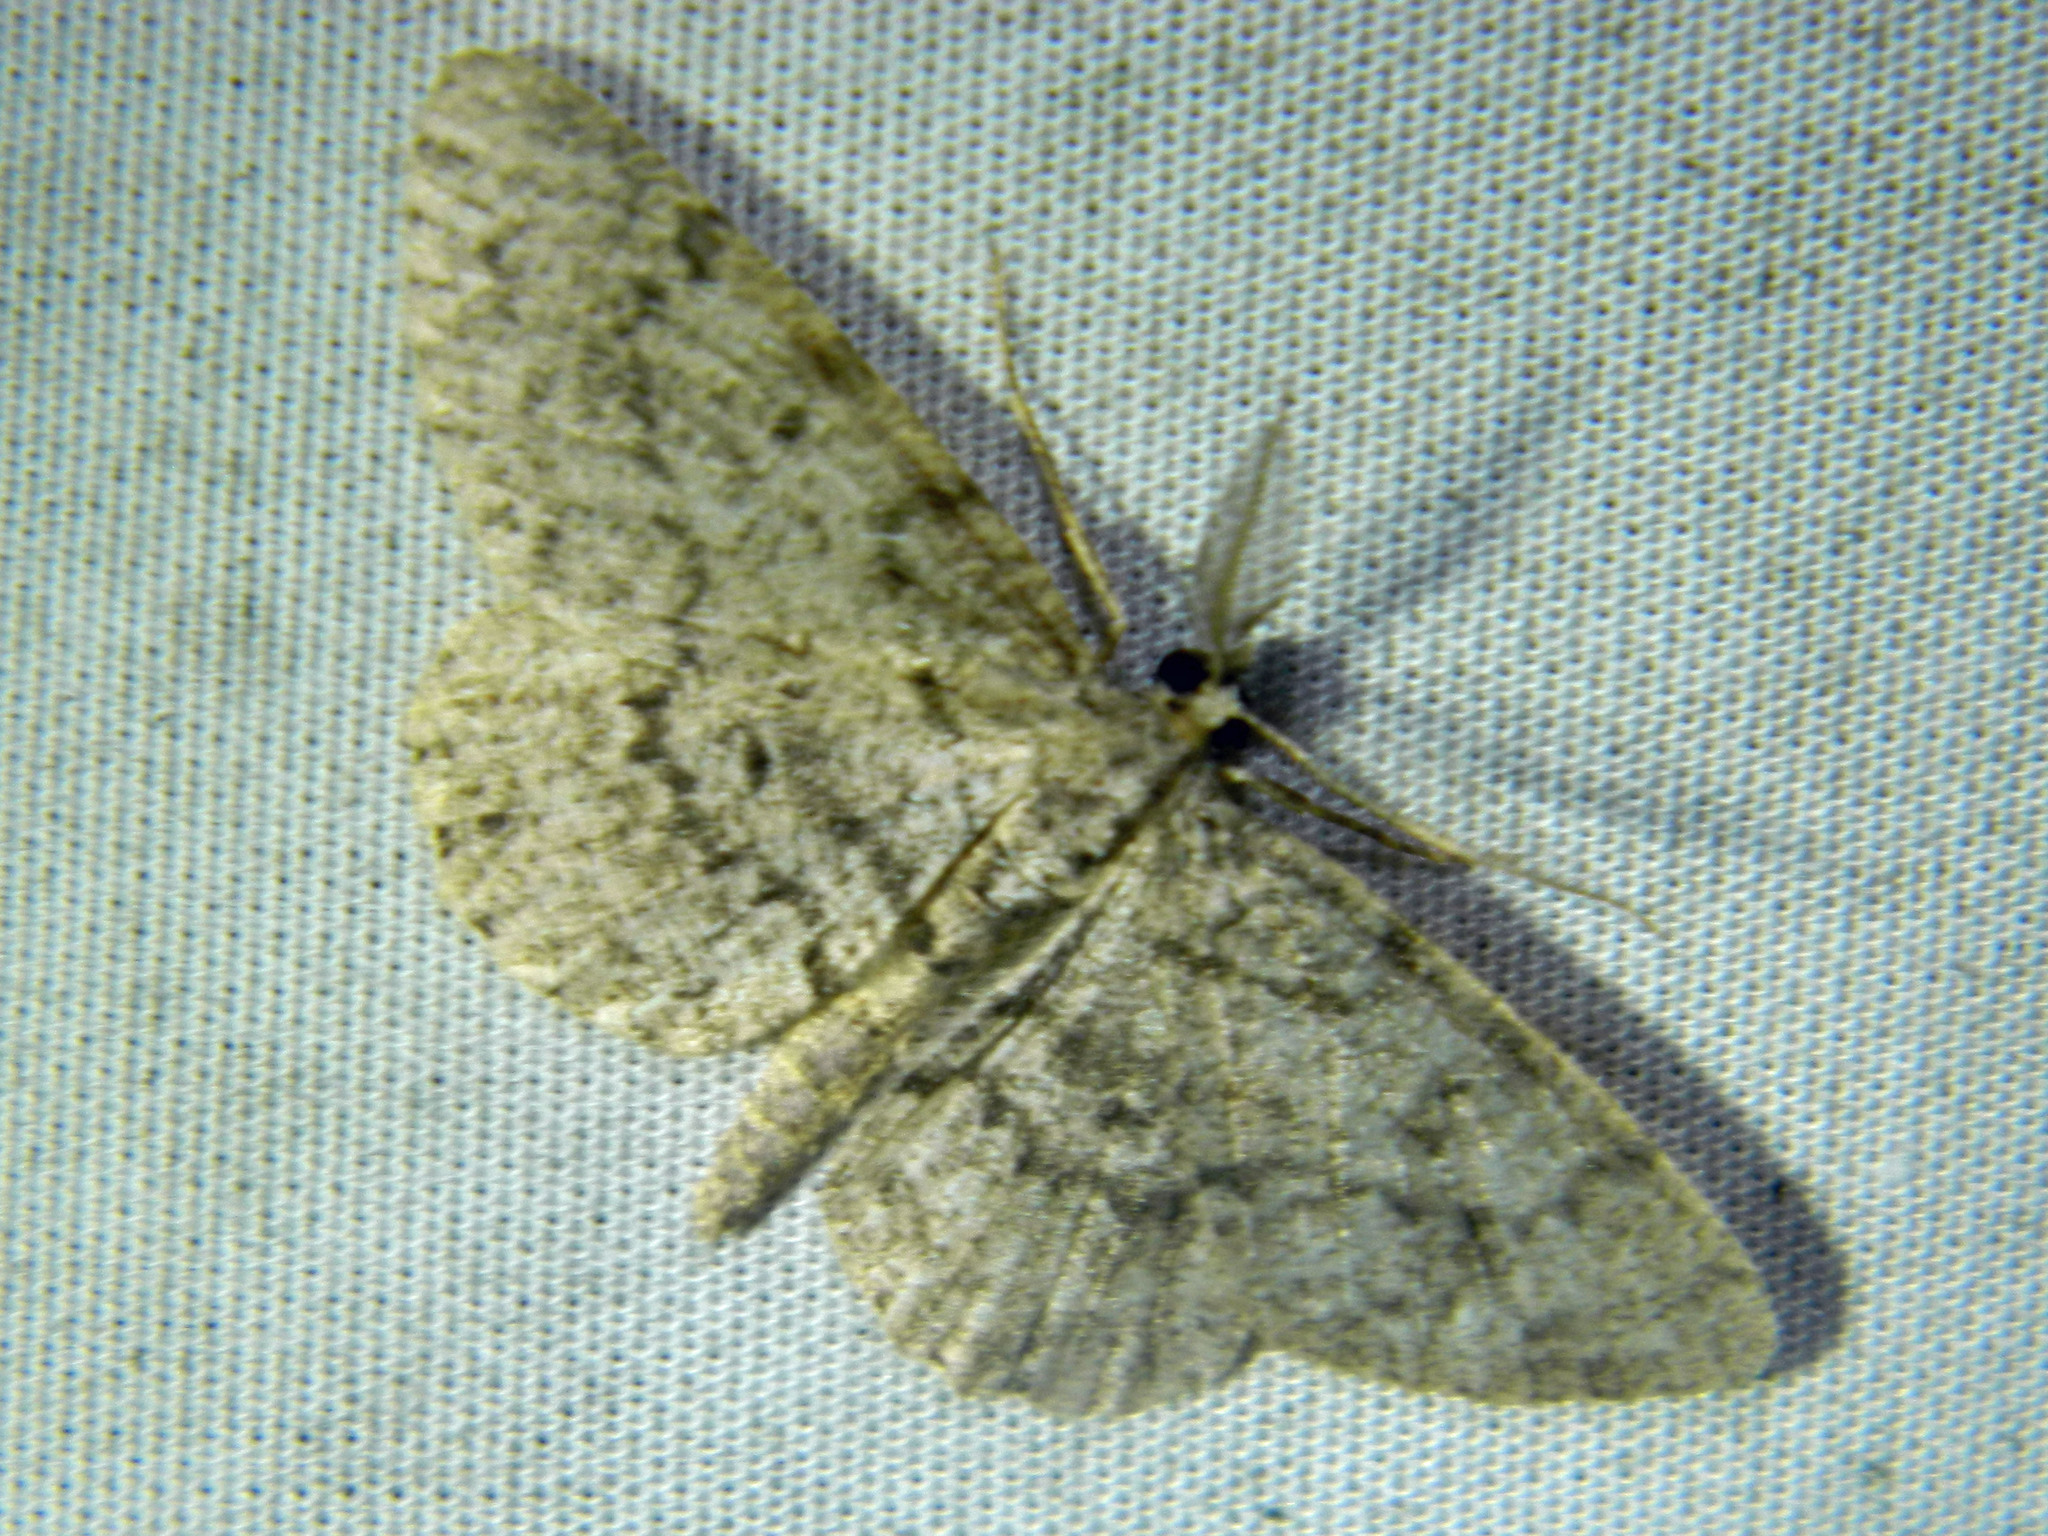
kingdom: Animalia
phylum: Arthropoda
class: Insecta
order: Lepidoptera
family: Geometridae
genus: Protoboarmia
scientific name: Protoboarmia porcelaria
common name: Porcelain gray
